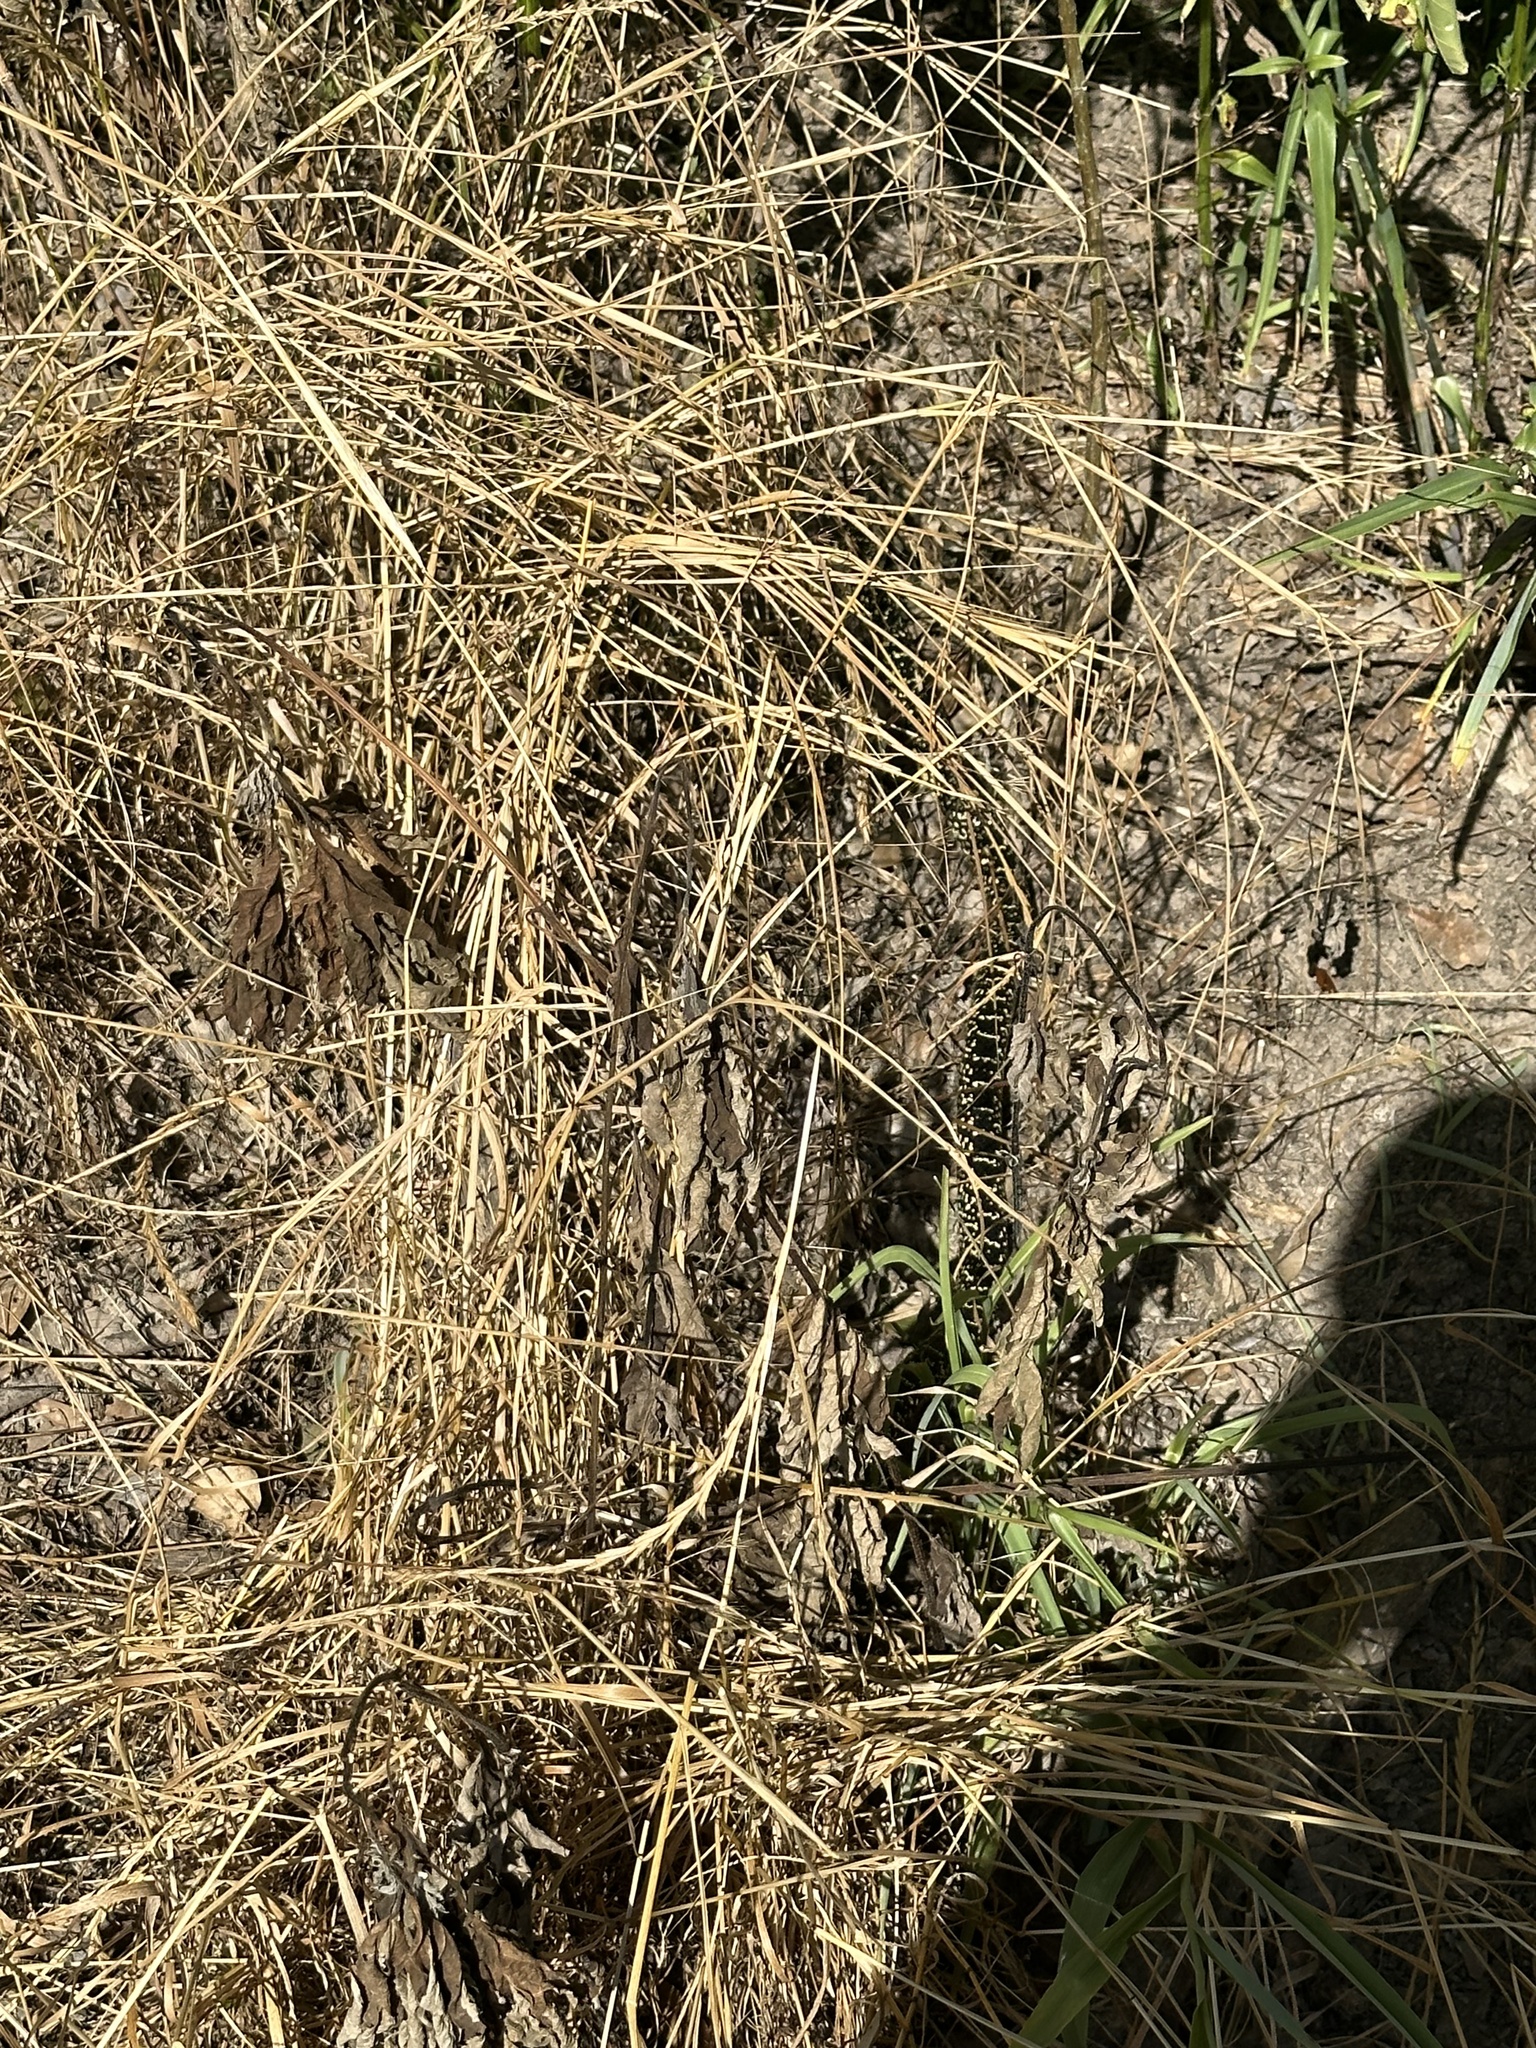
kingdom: Animalia
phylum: Chordata
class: Squamata
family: Colubridae
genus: Lampropeltis
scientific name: Lampropeltis holbrooki
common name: Speckled kingsnake
